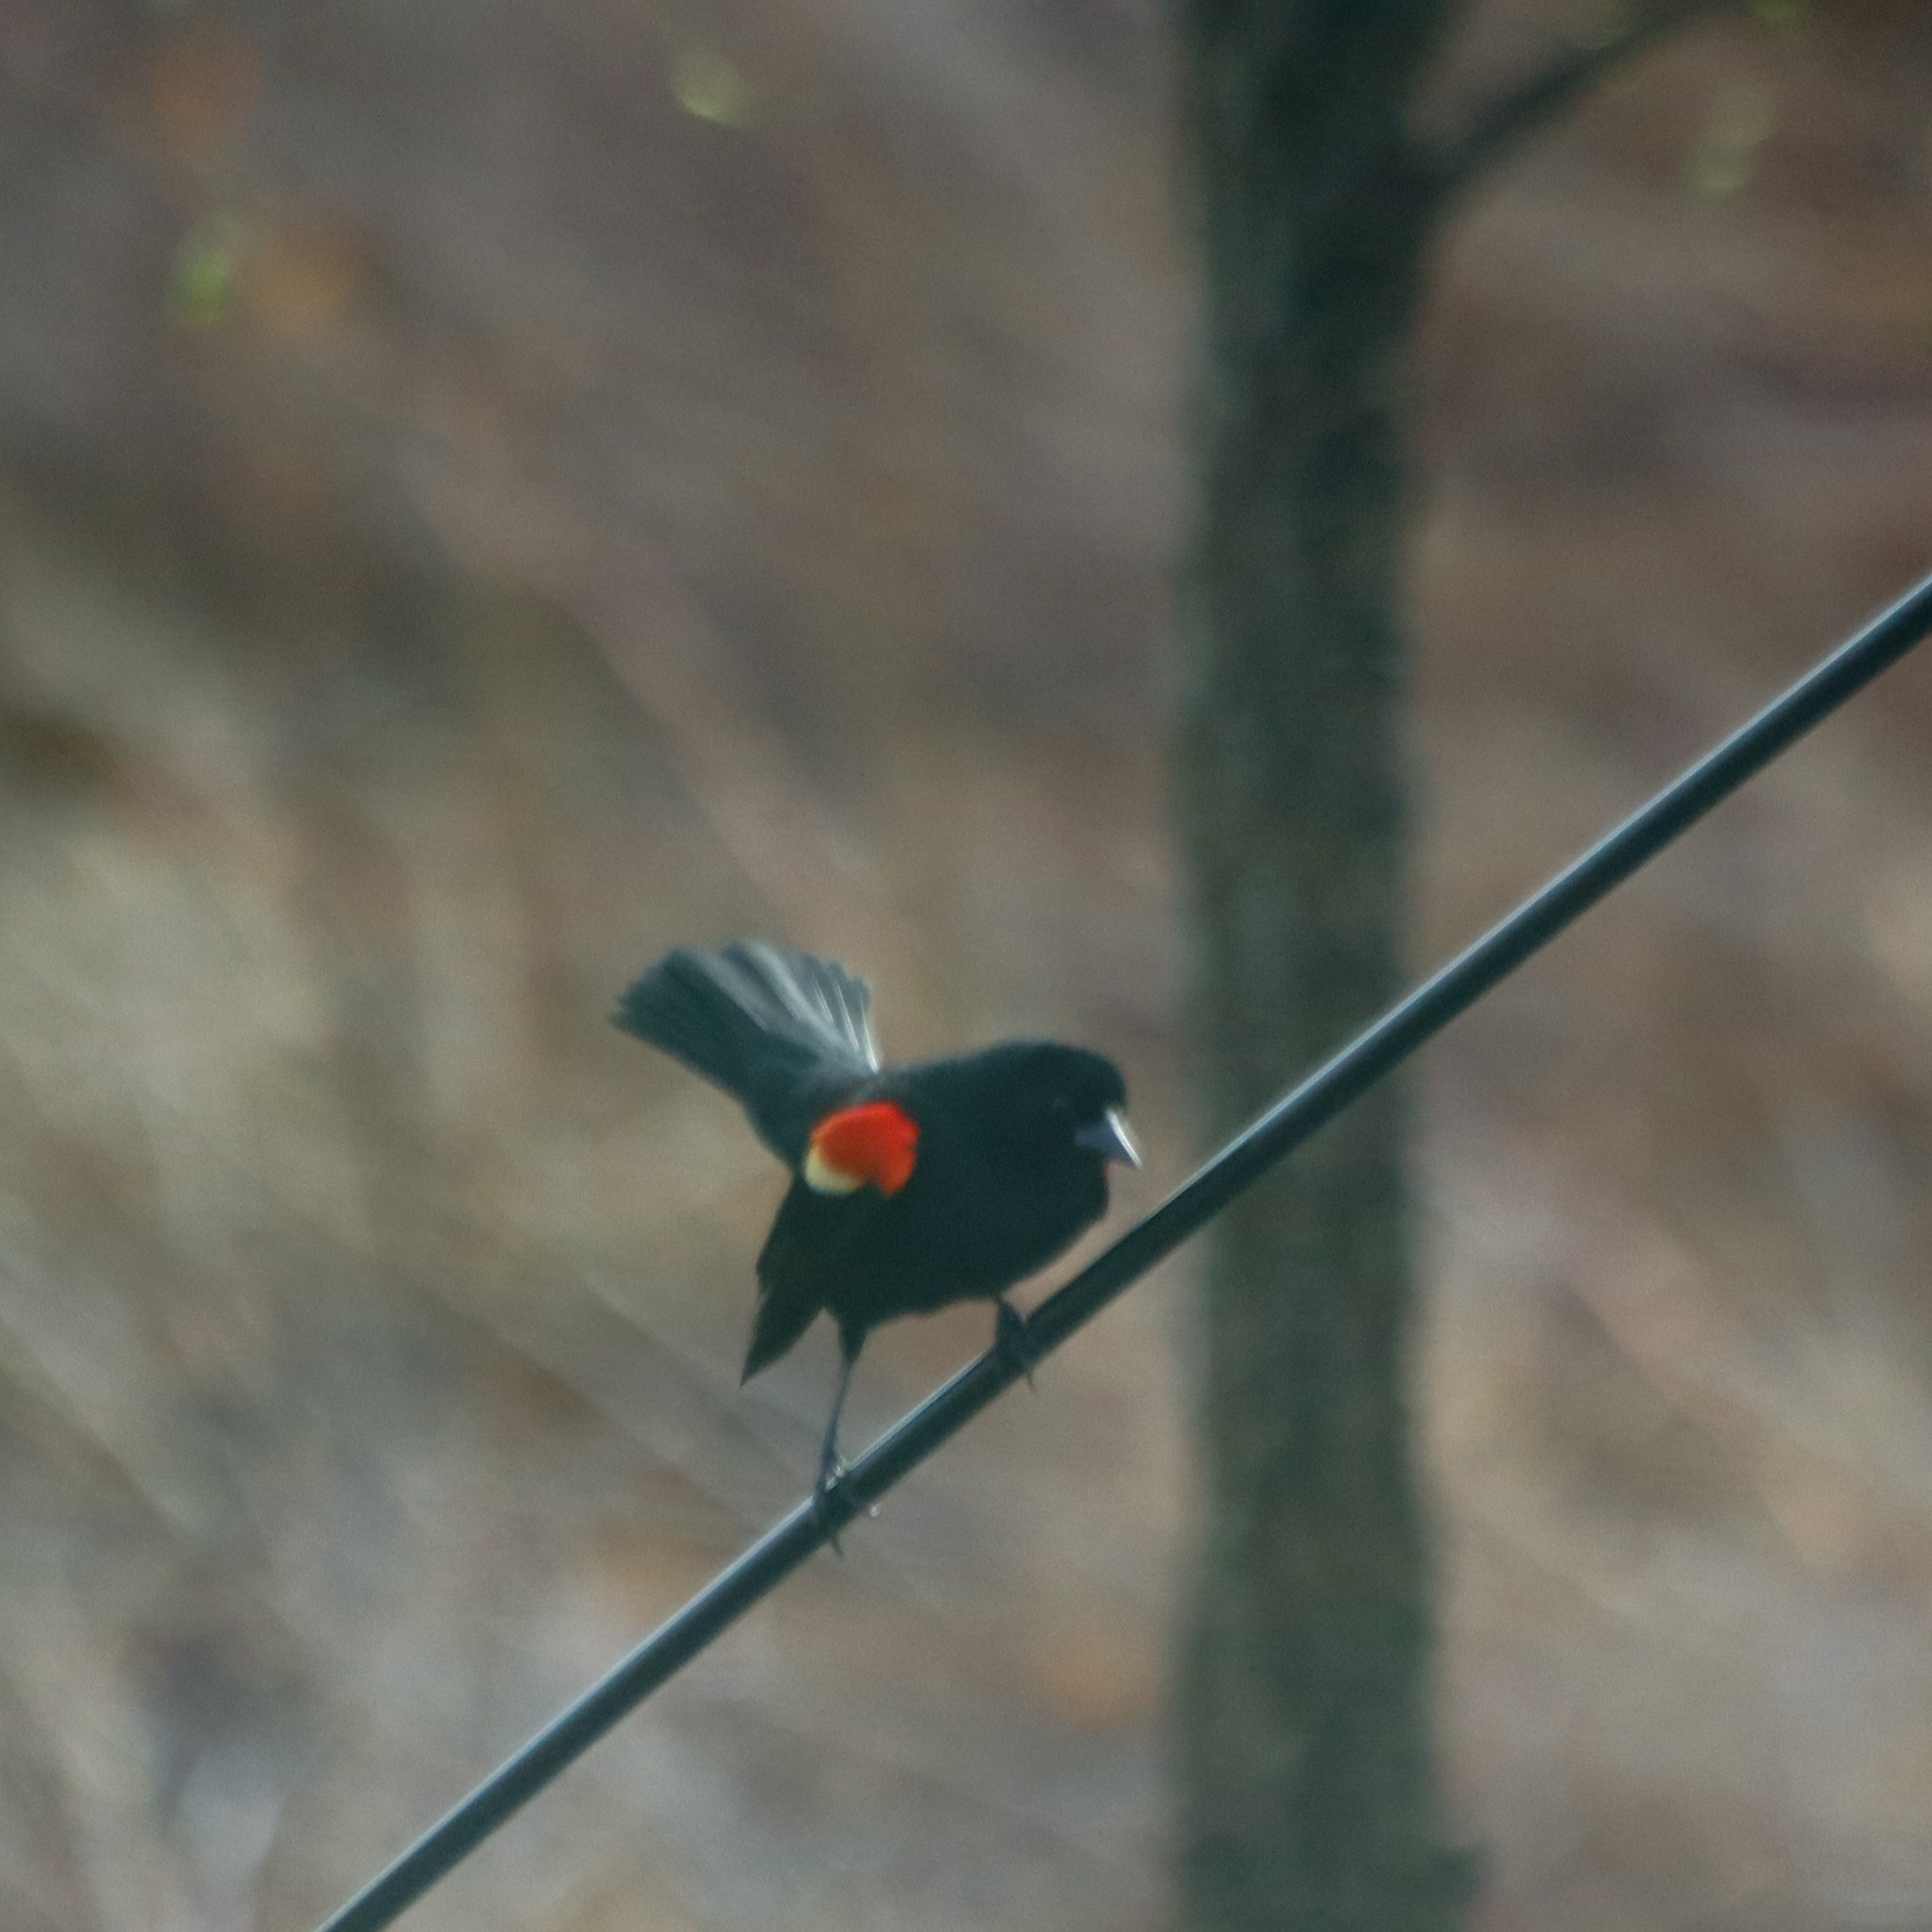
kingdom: Animalia
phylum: Chordata
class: Aves
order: Passeriformes
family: Icteridae
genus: Agelaius
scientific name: Agelaius phoeniceus
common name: Red-winged blackbird
